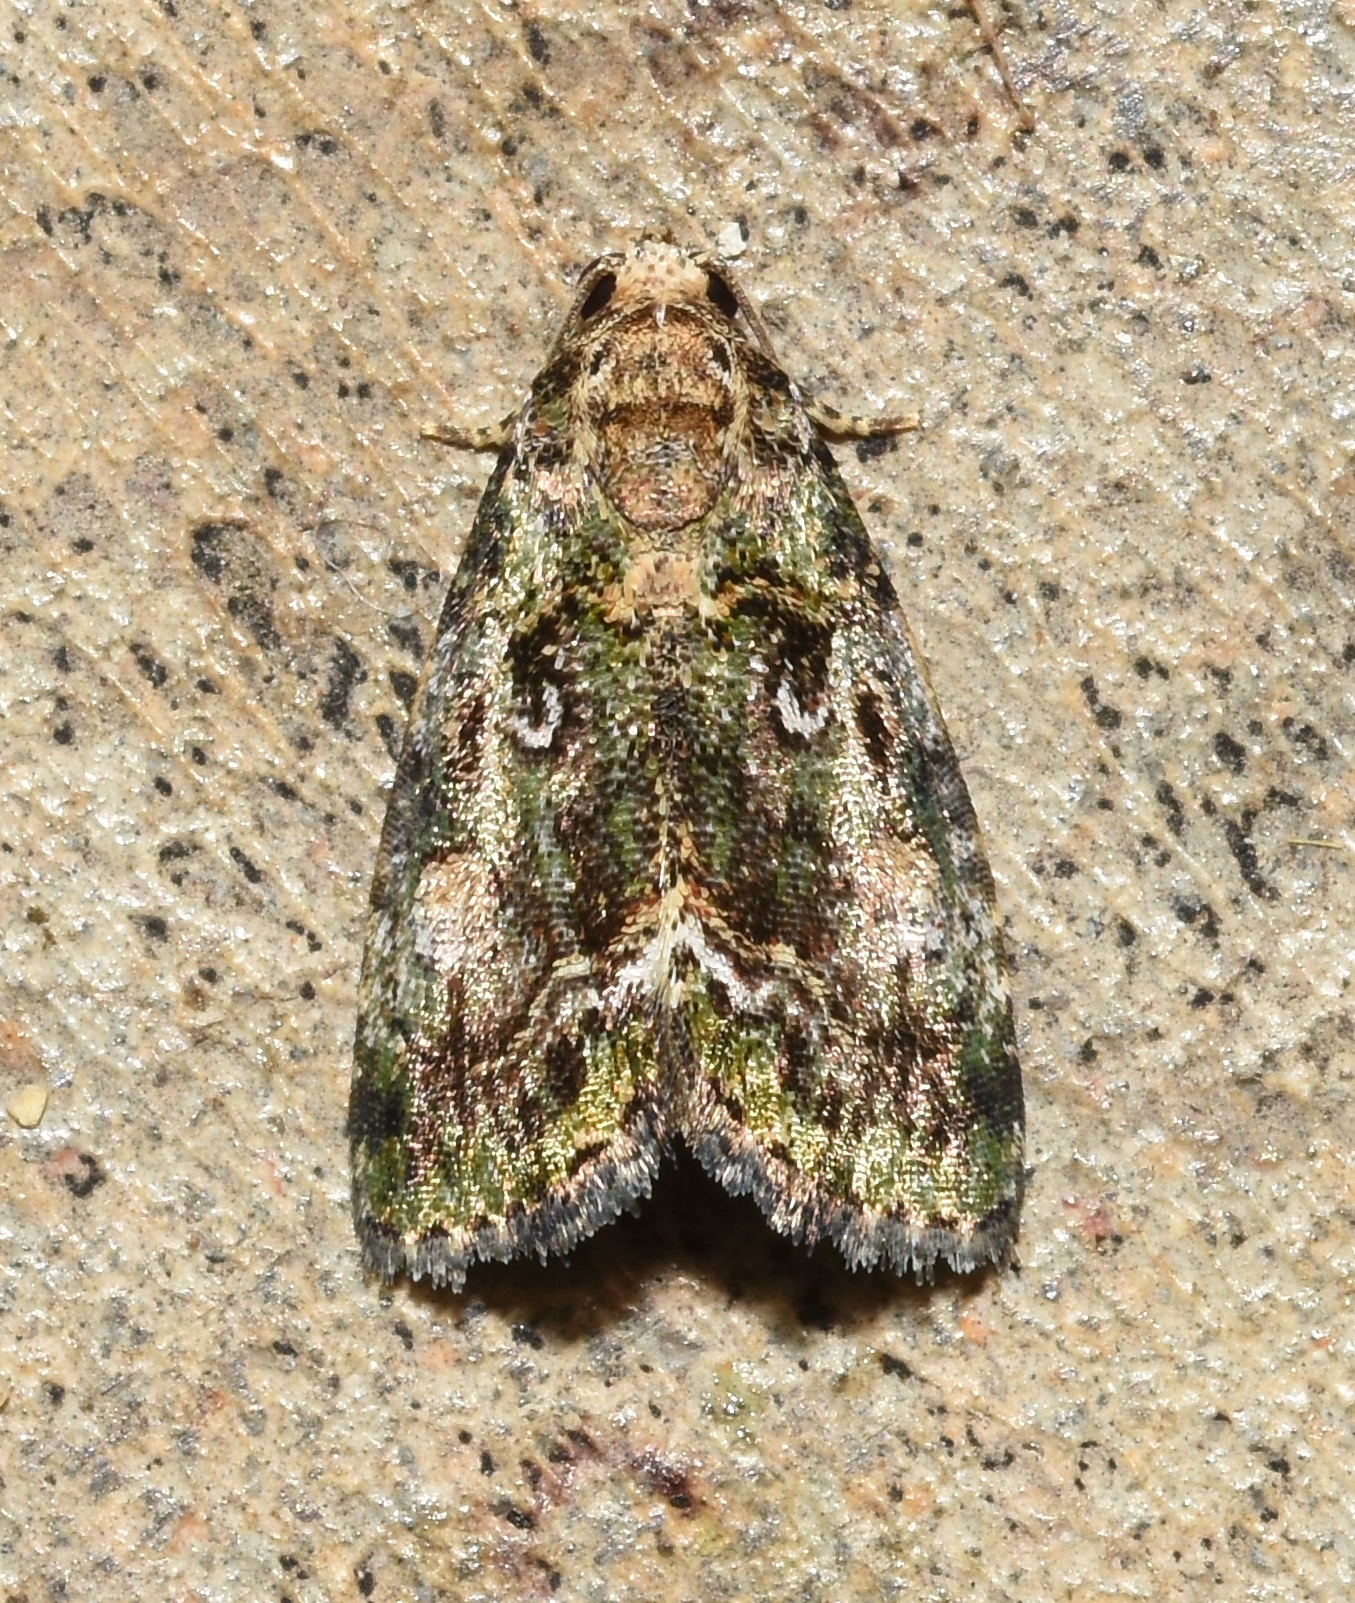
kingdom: Animalia
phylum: Arthropoda
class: Insecta
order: Lepidoptera
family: Noctuidae
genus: Lithacodia
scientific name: Lithacodia musta
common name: Small mossy glyph
